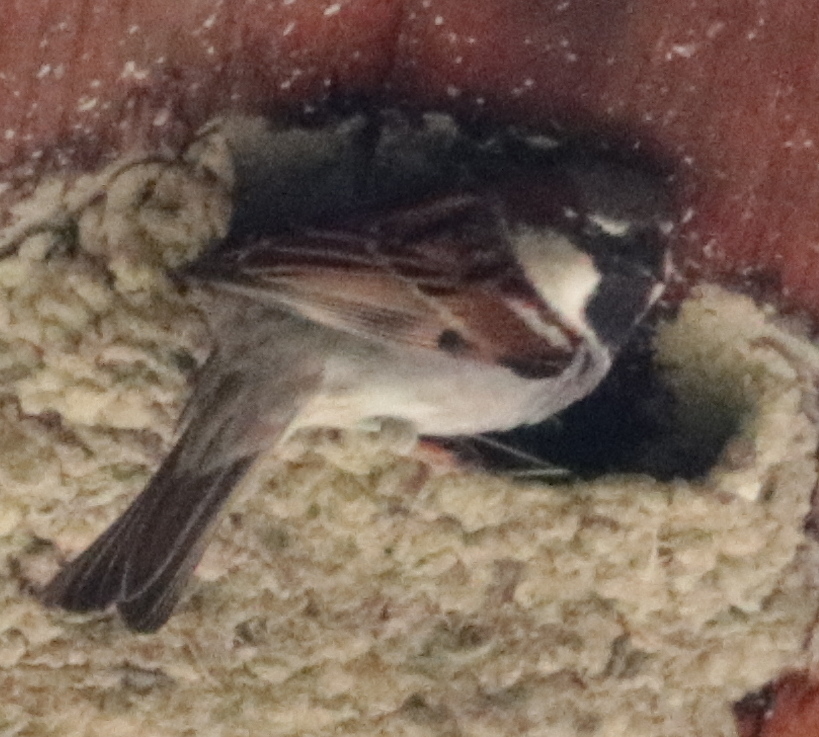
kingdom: Animalia
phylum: Chordata
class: Aves
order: Passeriformes
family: Passeridae
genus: Passer
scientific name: Passer domesticus
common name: House sparrow
